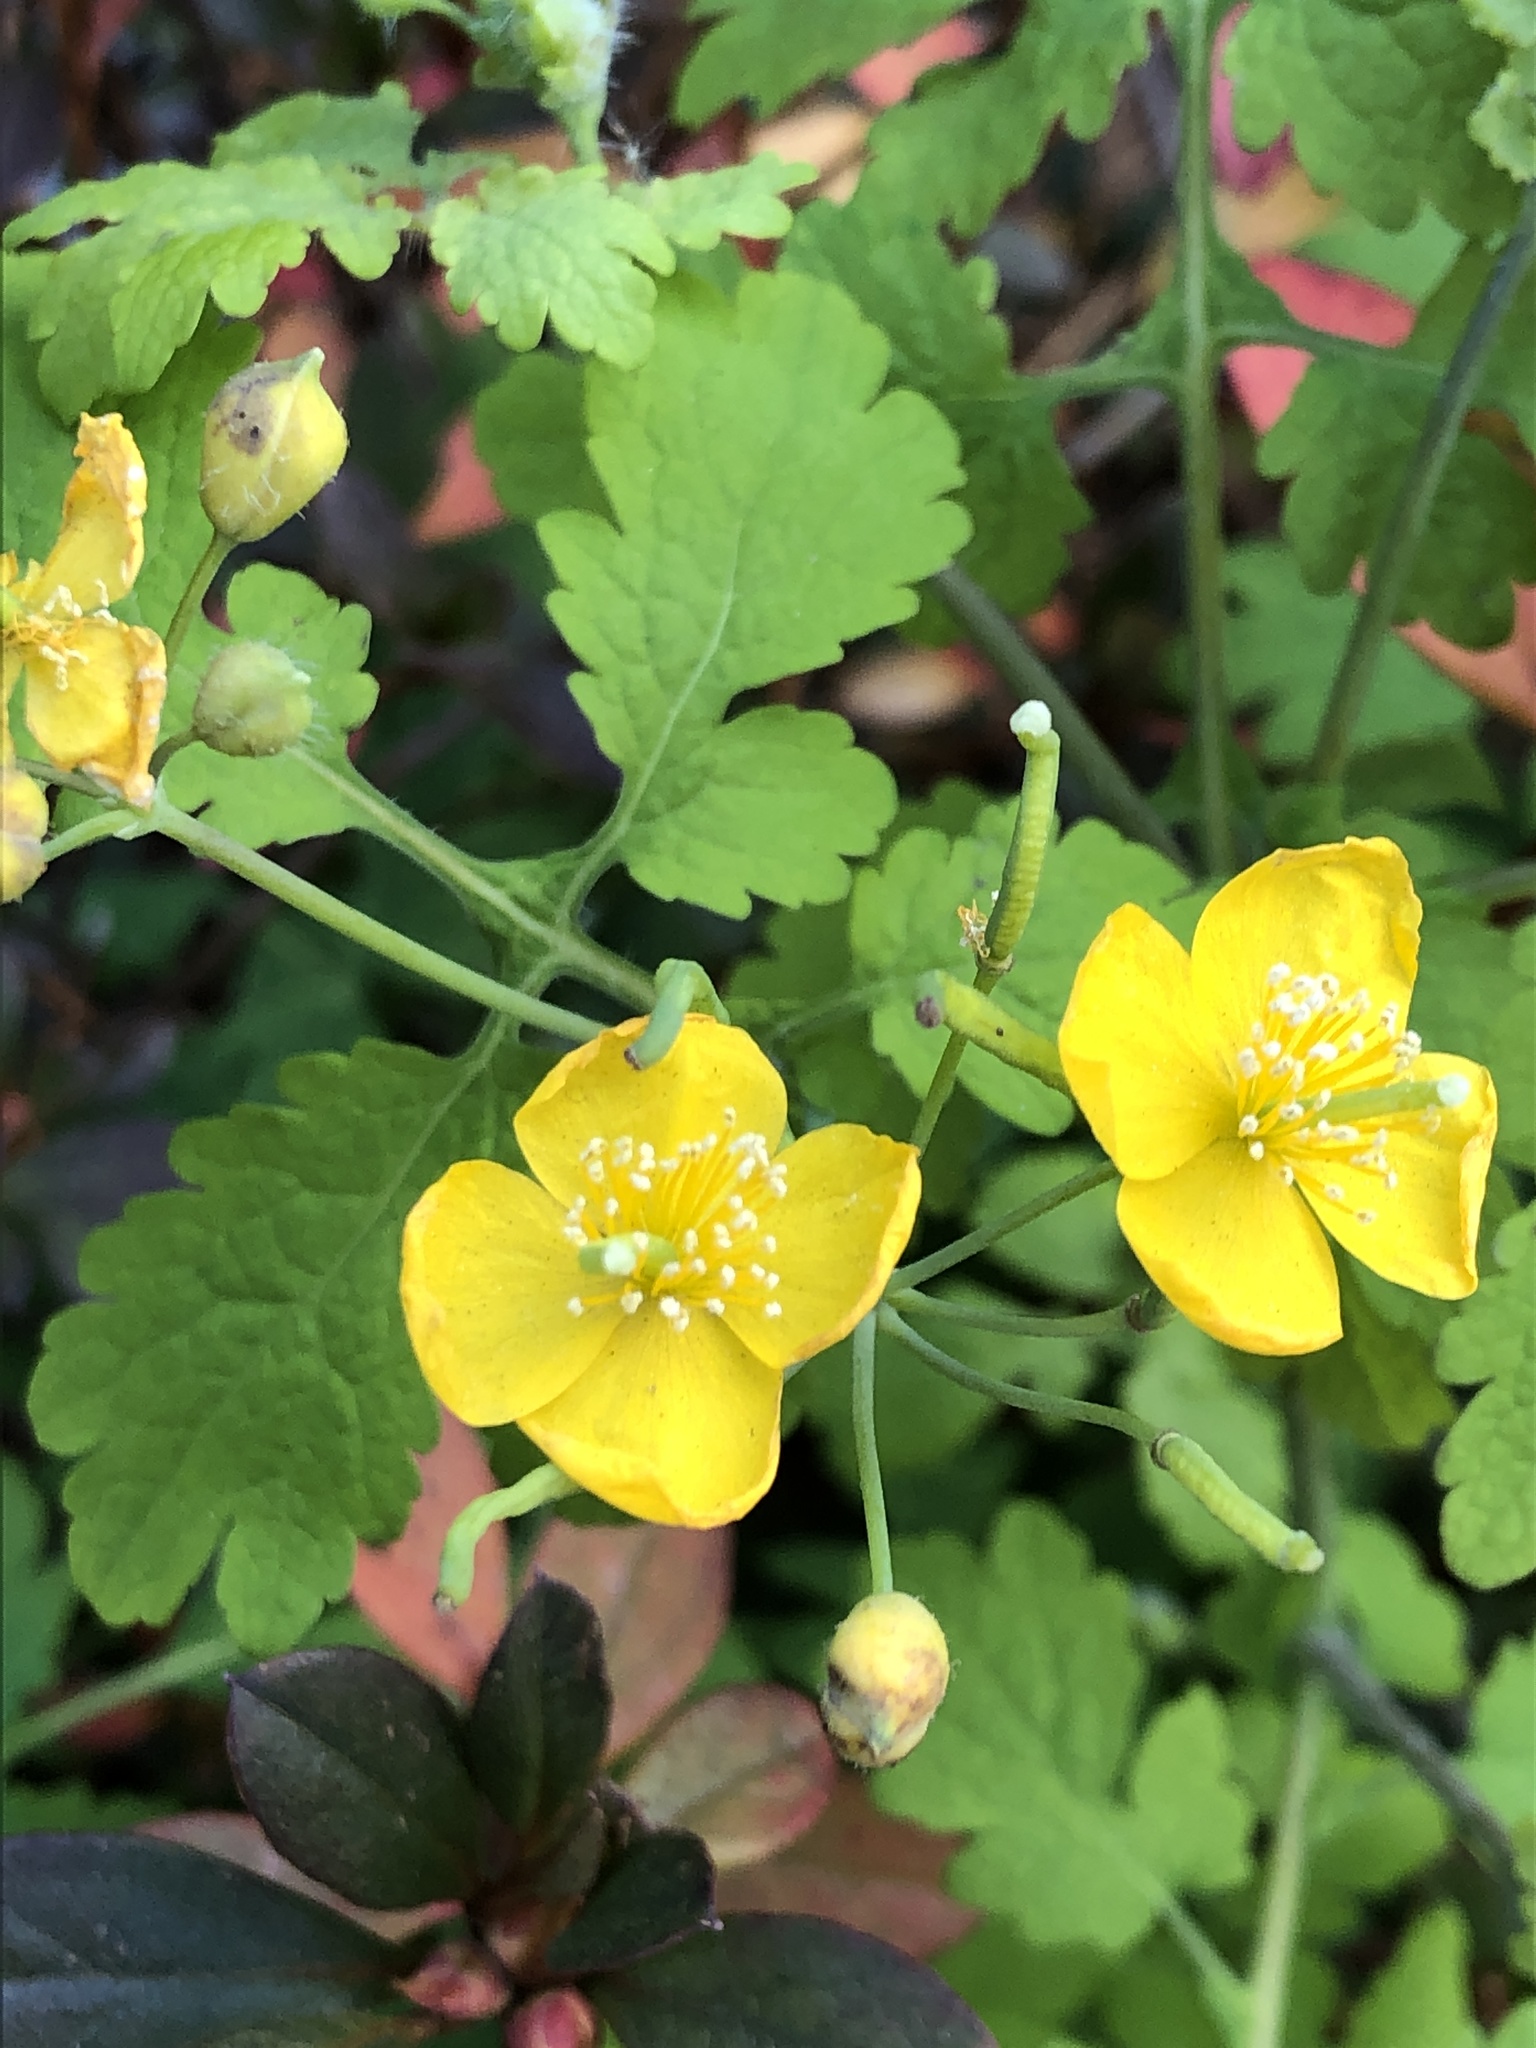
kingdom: Plantae
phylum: Tracheophyta
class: Magnoliopsida
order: Ranunculales
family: Papaveraceae
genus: Chelidonium
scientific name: Chelidonium majus
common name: Greater celandine
